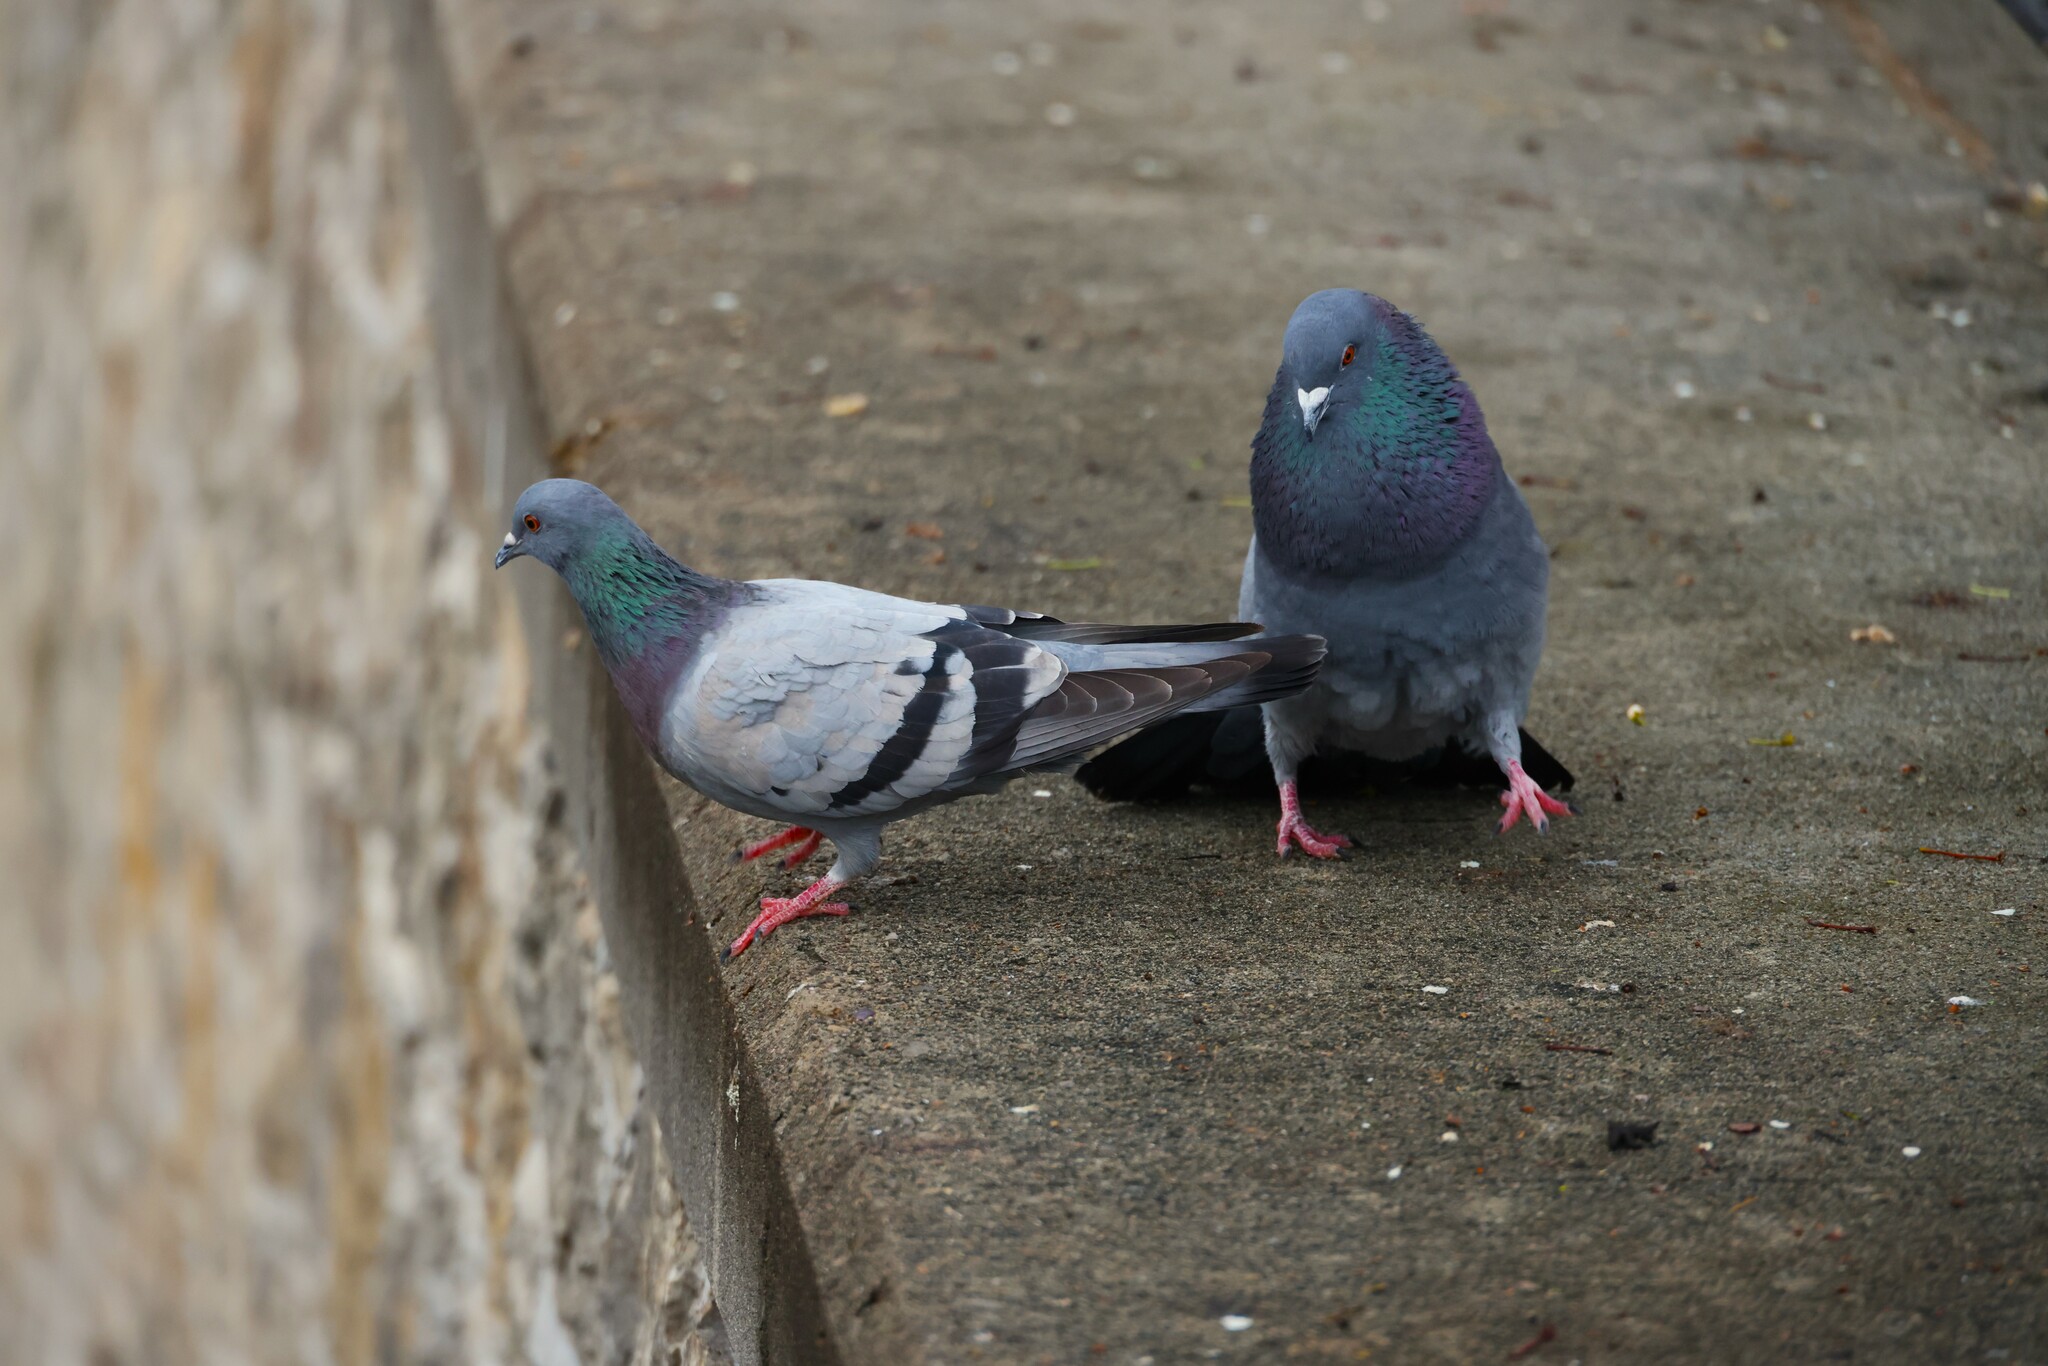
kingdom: Animalia
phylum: Chordata
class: Aves
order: Columbiformes
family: Columbidae
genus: Columba
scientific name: Columba livia
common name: Rock pigeon
